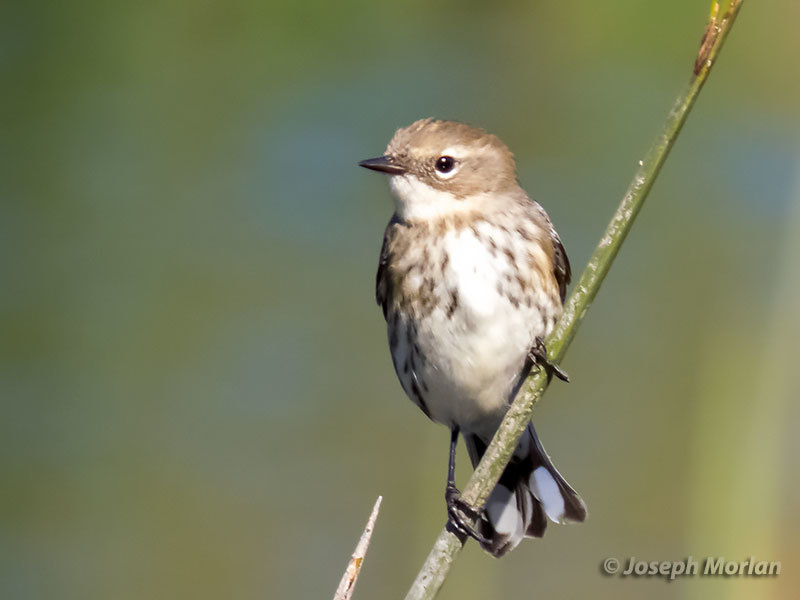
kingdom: Animalia
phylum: Chordata
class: Aves
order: Passeriformes
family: Parulidae
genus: Setophaga
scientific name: Setophaga coronata
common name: Myrtle warbler
